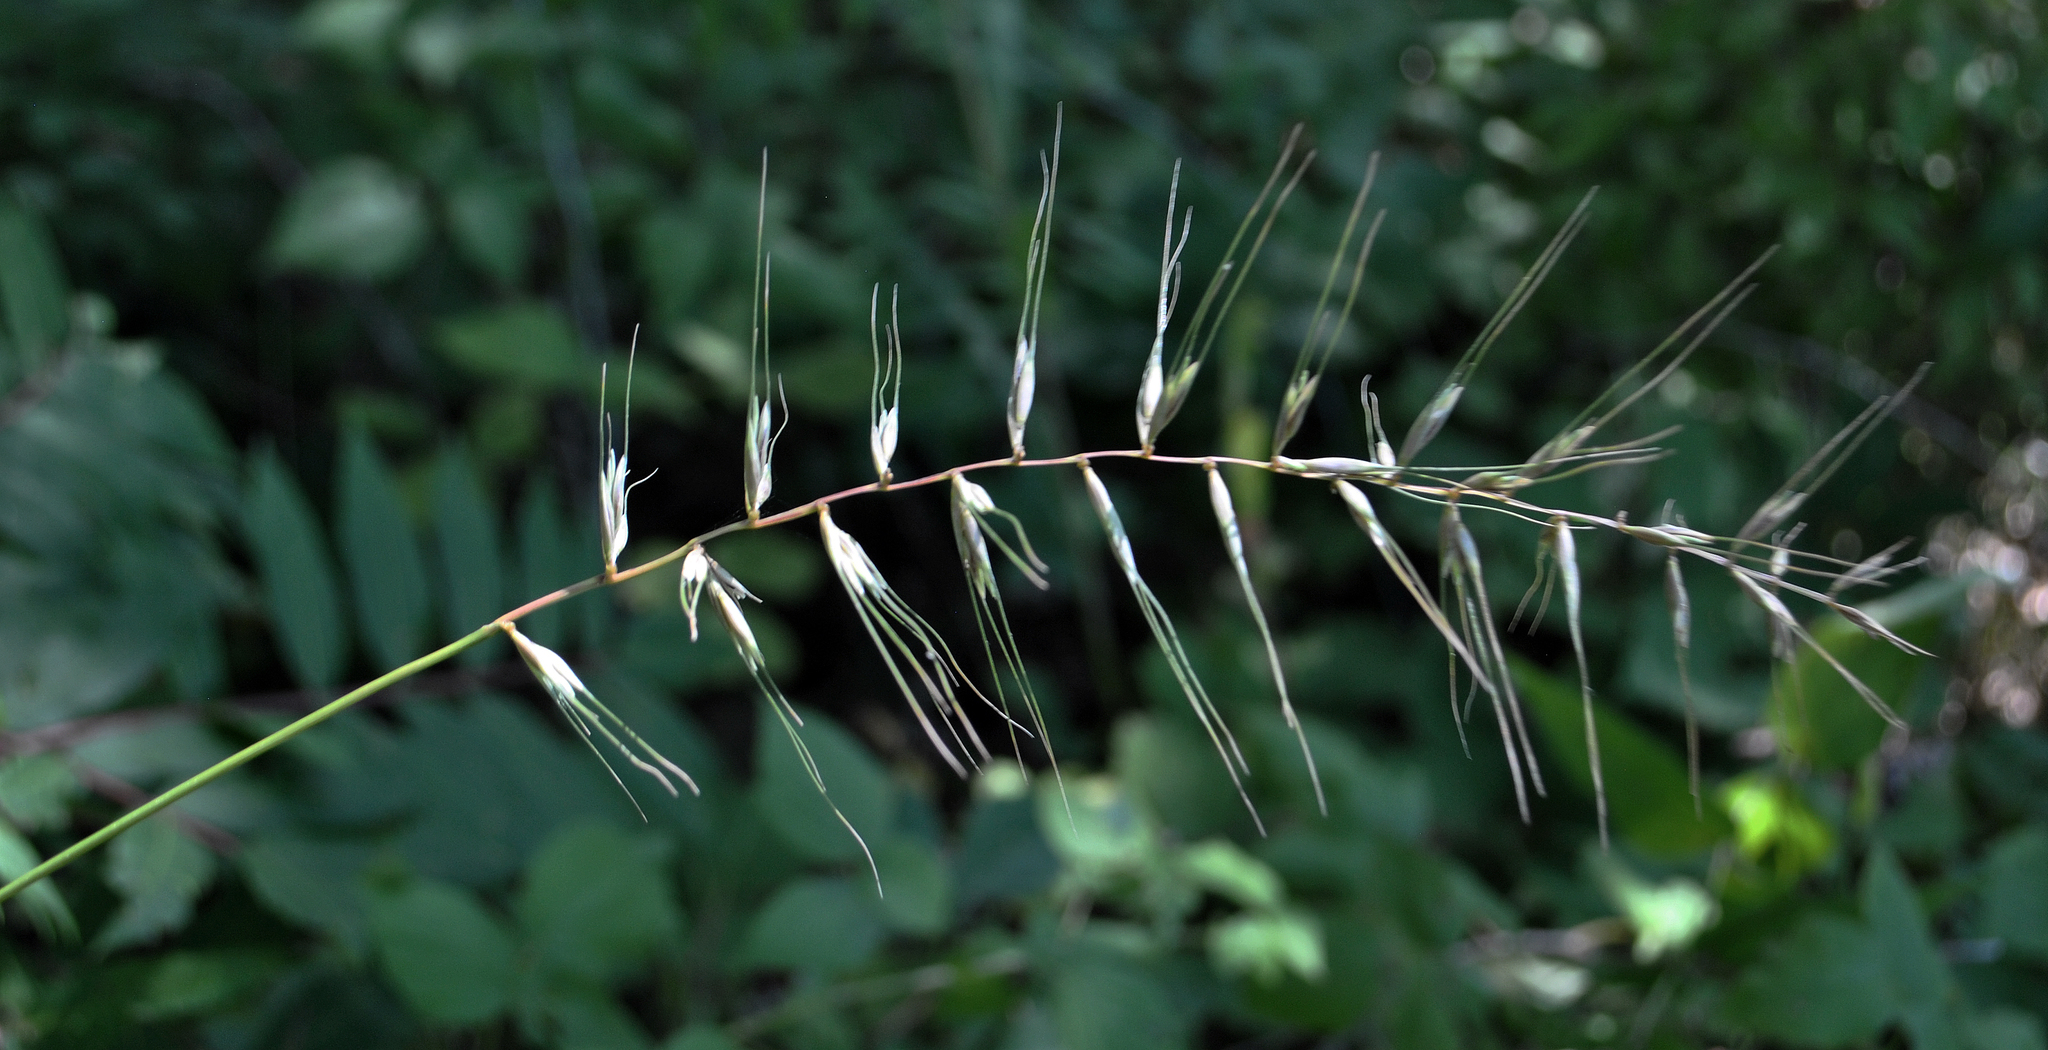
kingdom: Plantae
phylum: Tracheophyta
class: Liliopsida
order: Poales
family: Poaceae
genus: Elymus
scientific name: Elymus hystrix
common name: Bottlebrush grass
